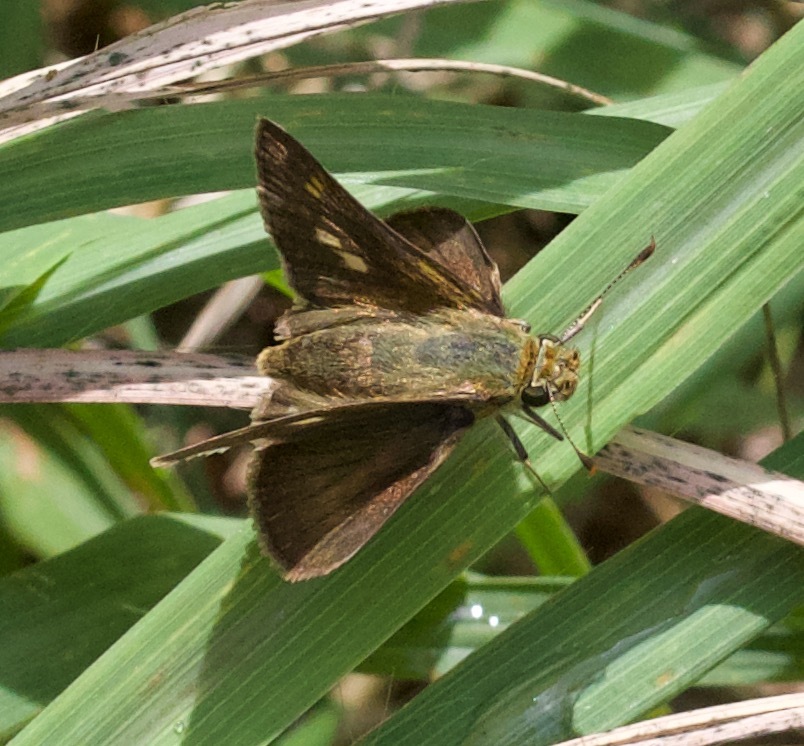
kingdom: Animalia
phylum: Arthropoda
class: Insecta
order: Lepidoptera
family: Hesperiidae
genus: Polites
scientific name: Polites egeremet
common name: Northern broken-dash
